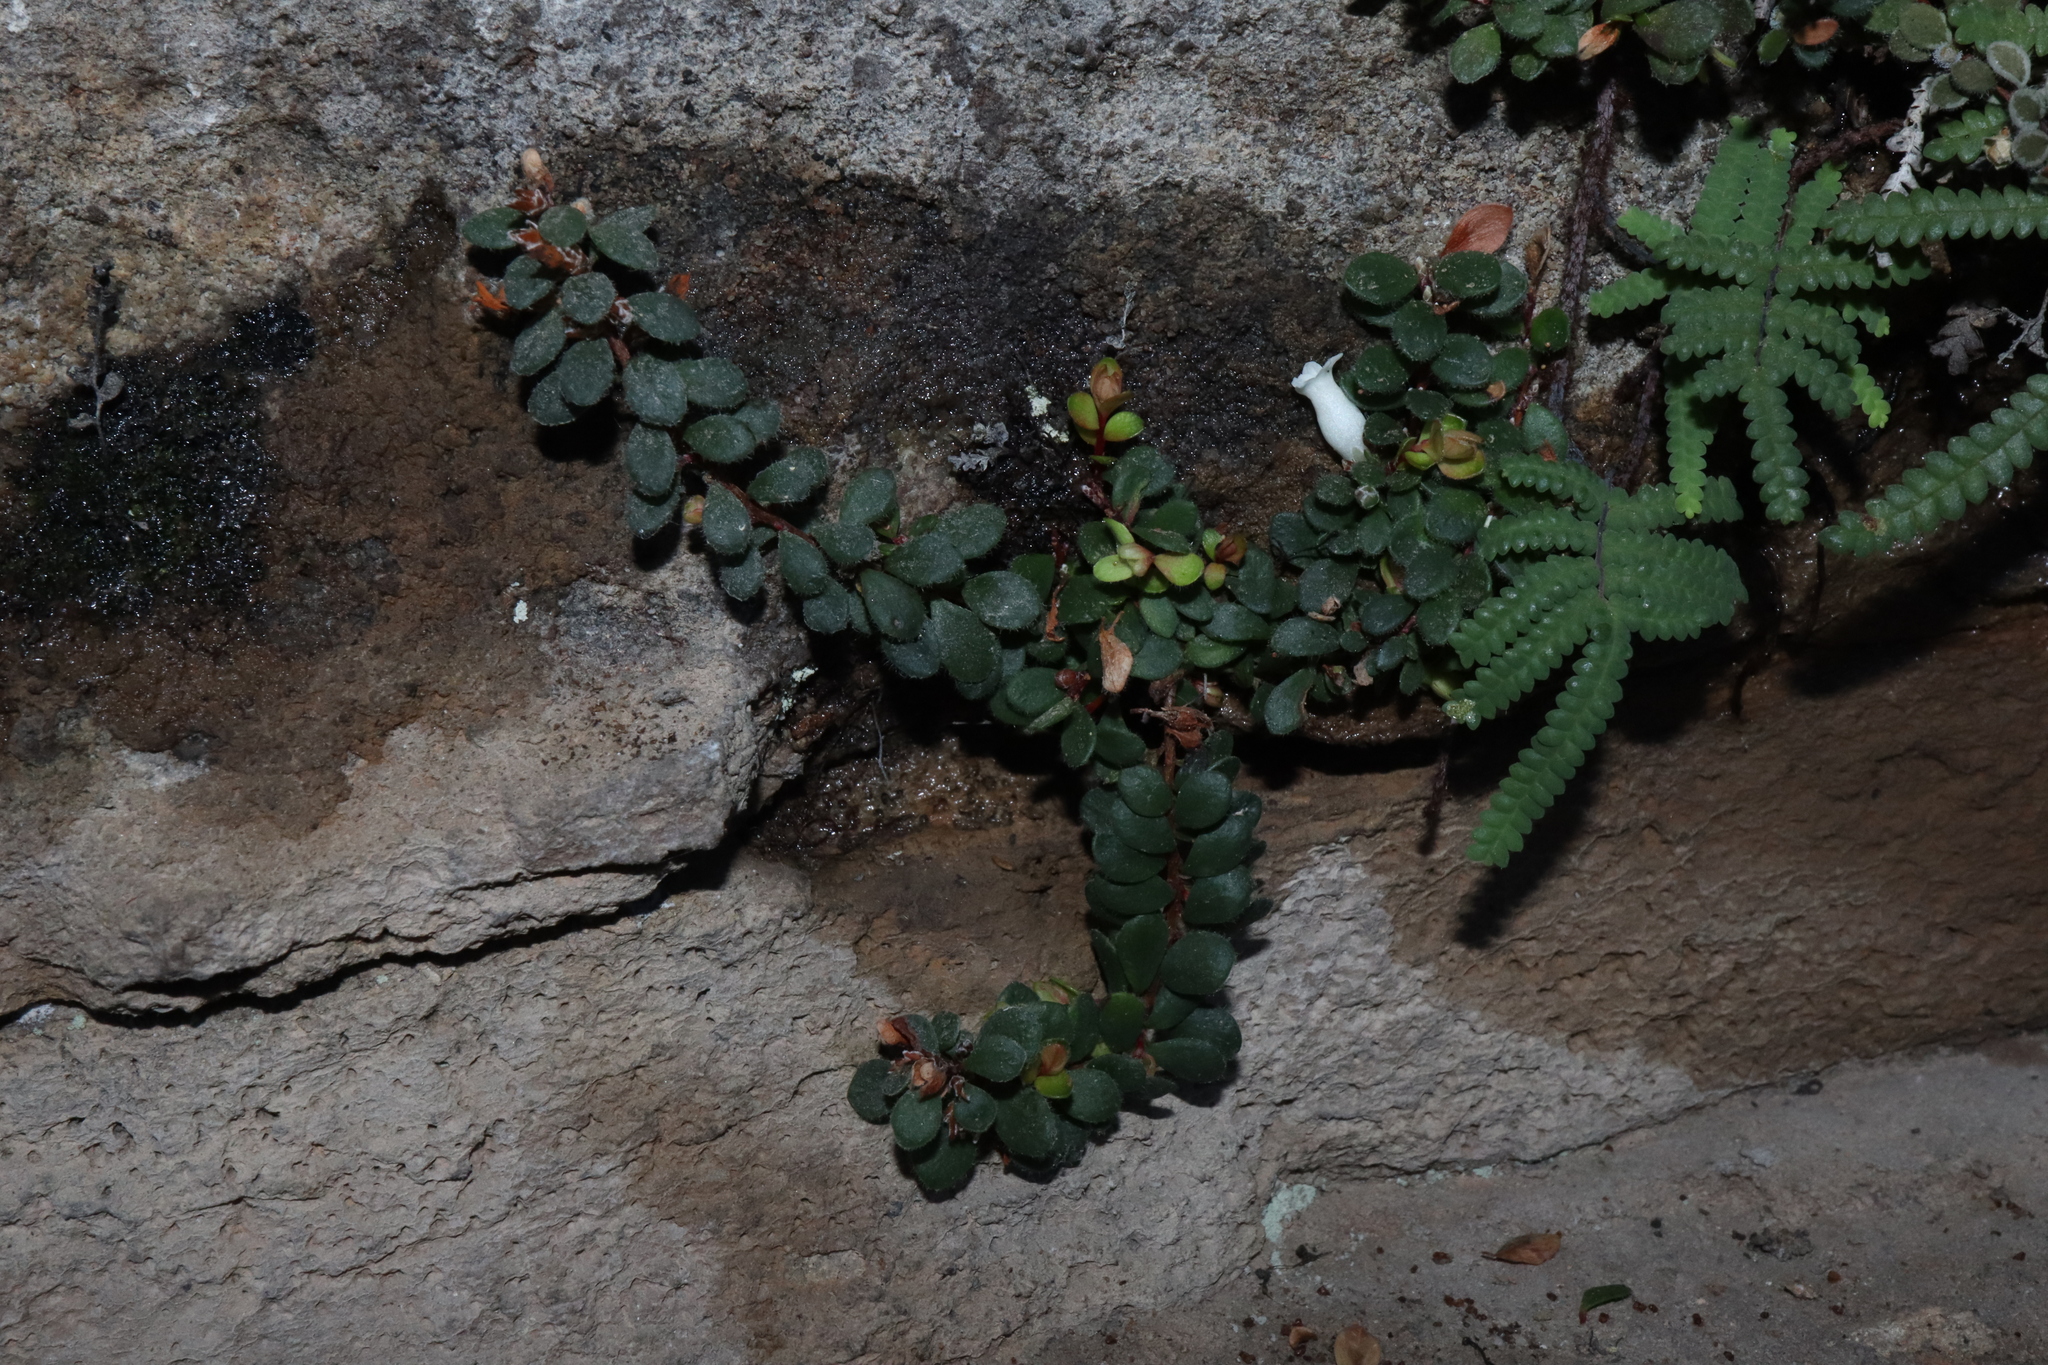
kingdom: Plantae
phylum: Tracheophyta
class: Magnoliopsida
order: Ericales
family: Ericaceae
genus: Epacris
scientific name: Epacris crassifolia
